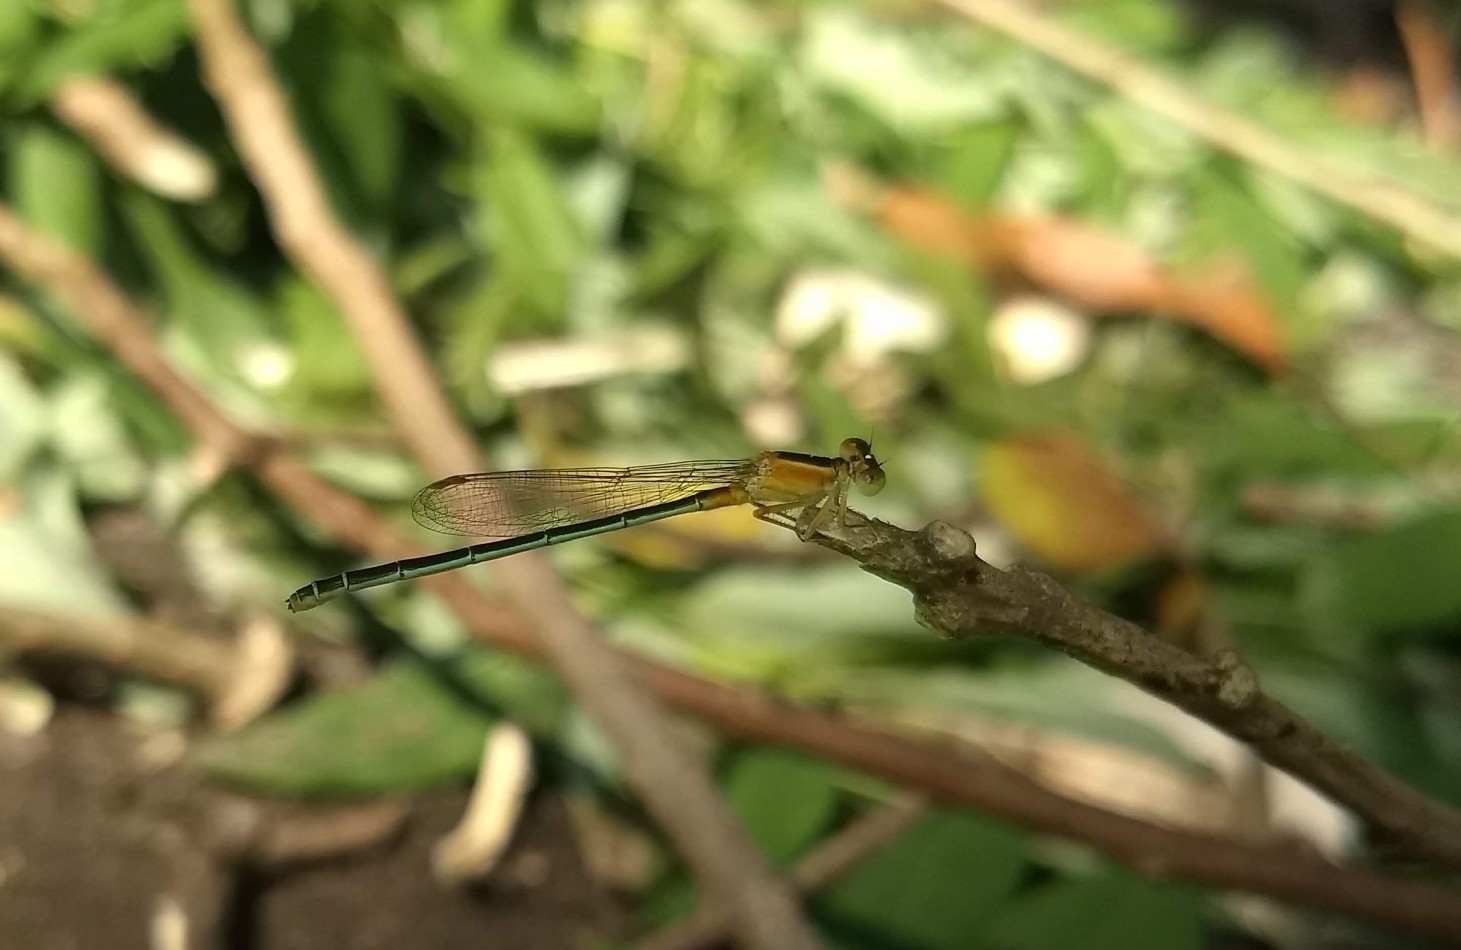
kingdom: Animalia
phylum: Arthropoda
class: Insecta
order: Odonata
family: Coenagrionidae
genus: Ischnura
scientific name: Ischnura senegalensis
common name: Tropical bluetail
